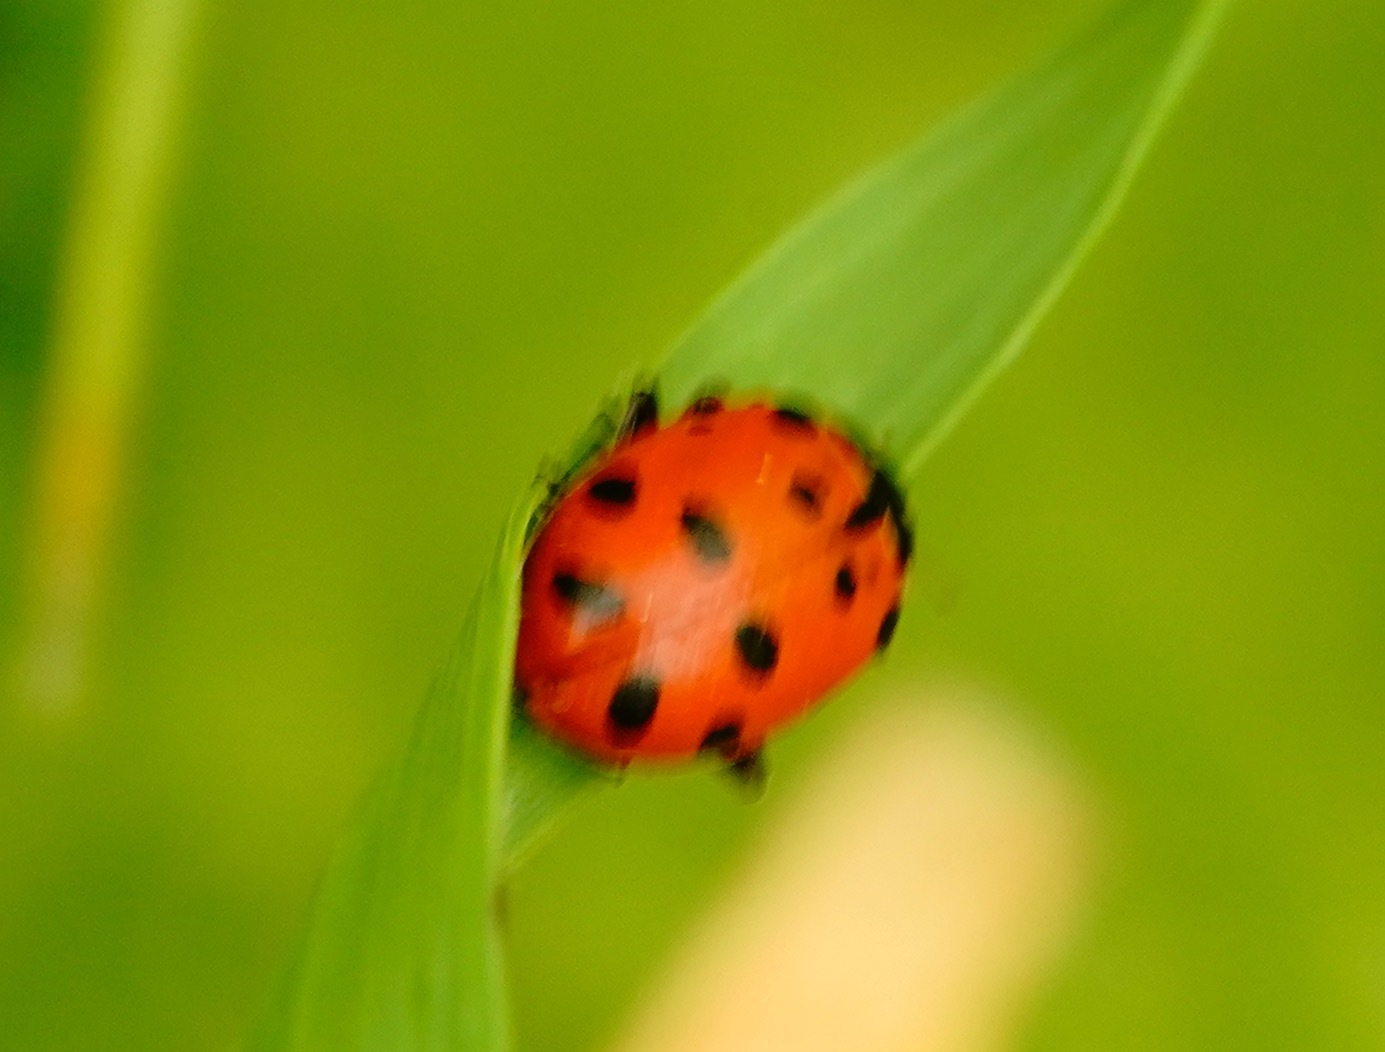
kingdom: Animalia
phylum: Arthropoda
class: Insecta
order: Coleoptera
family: Coccinellidae
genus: Hippodamia
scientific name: Hippodamia convergens
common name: Convergent lady beetle
